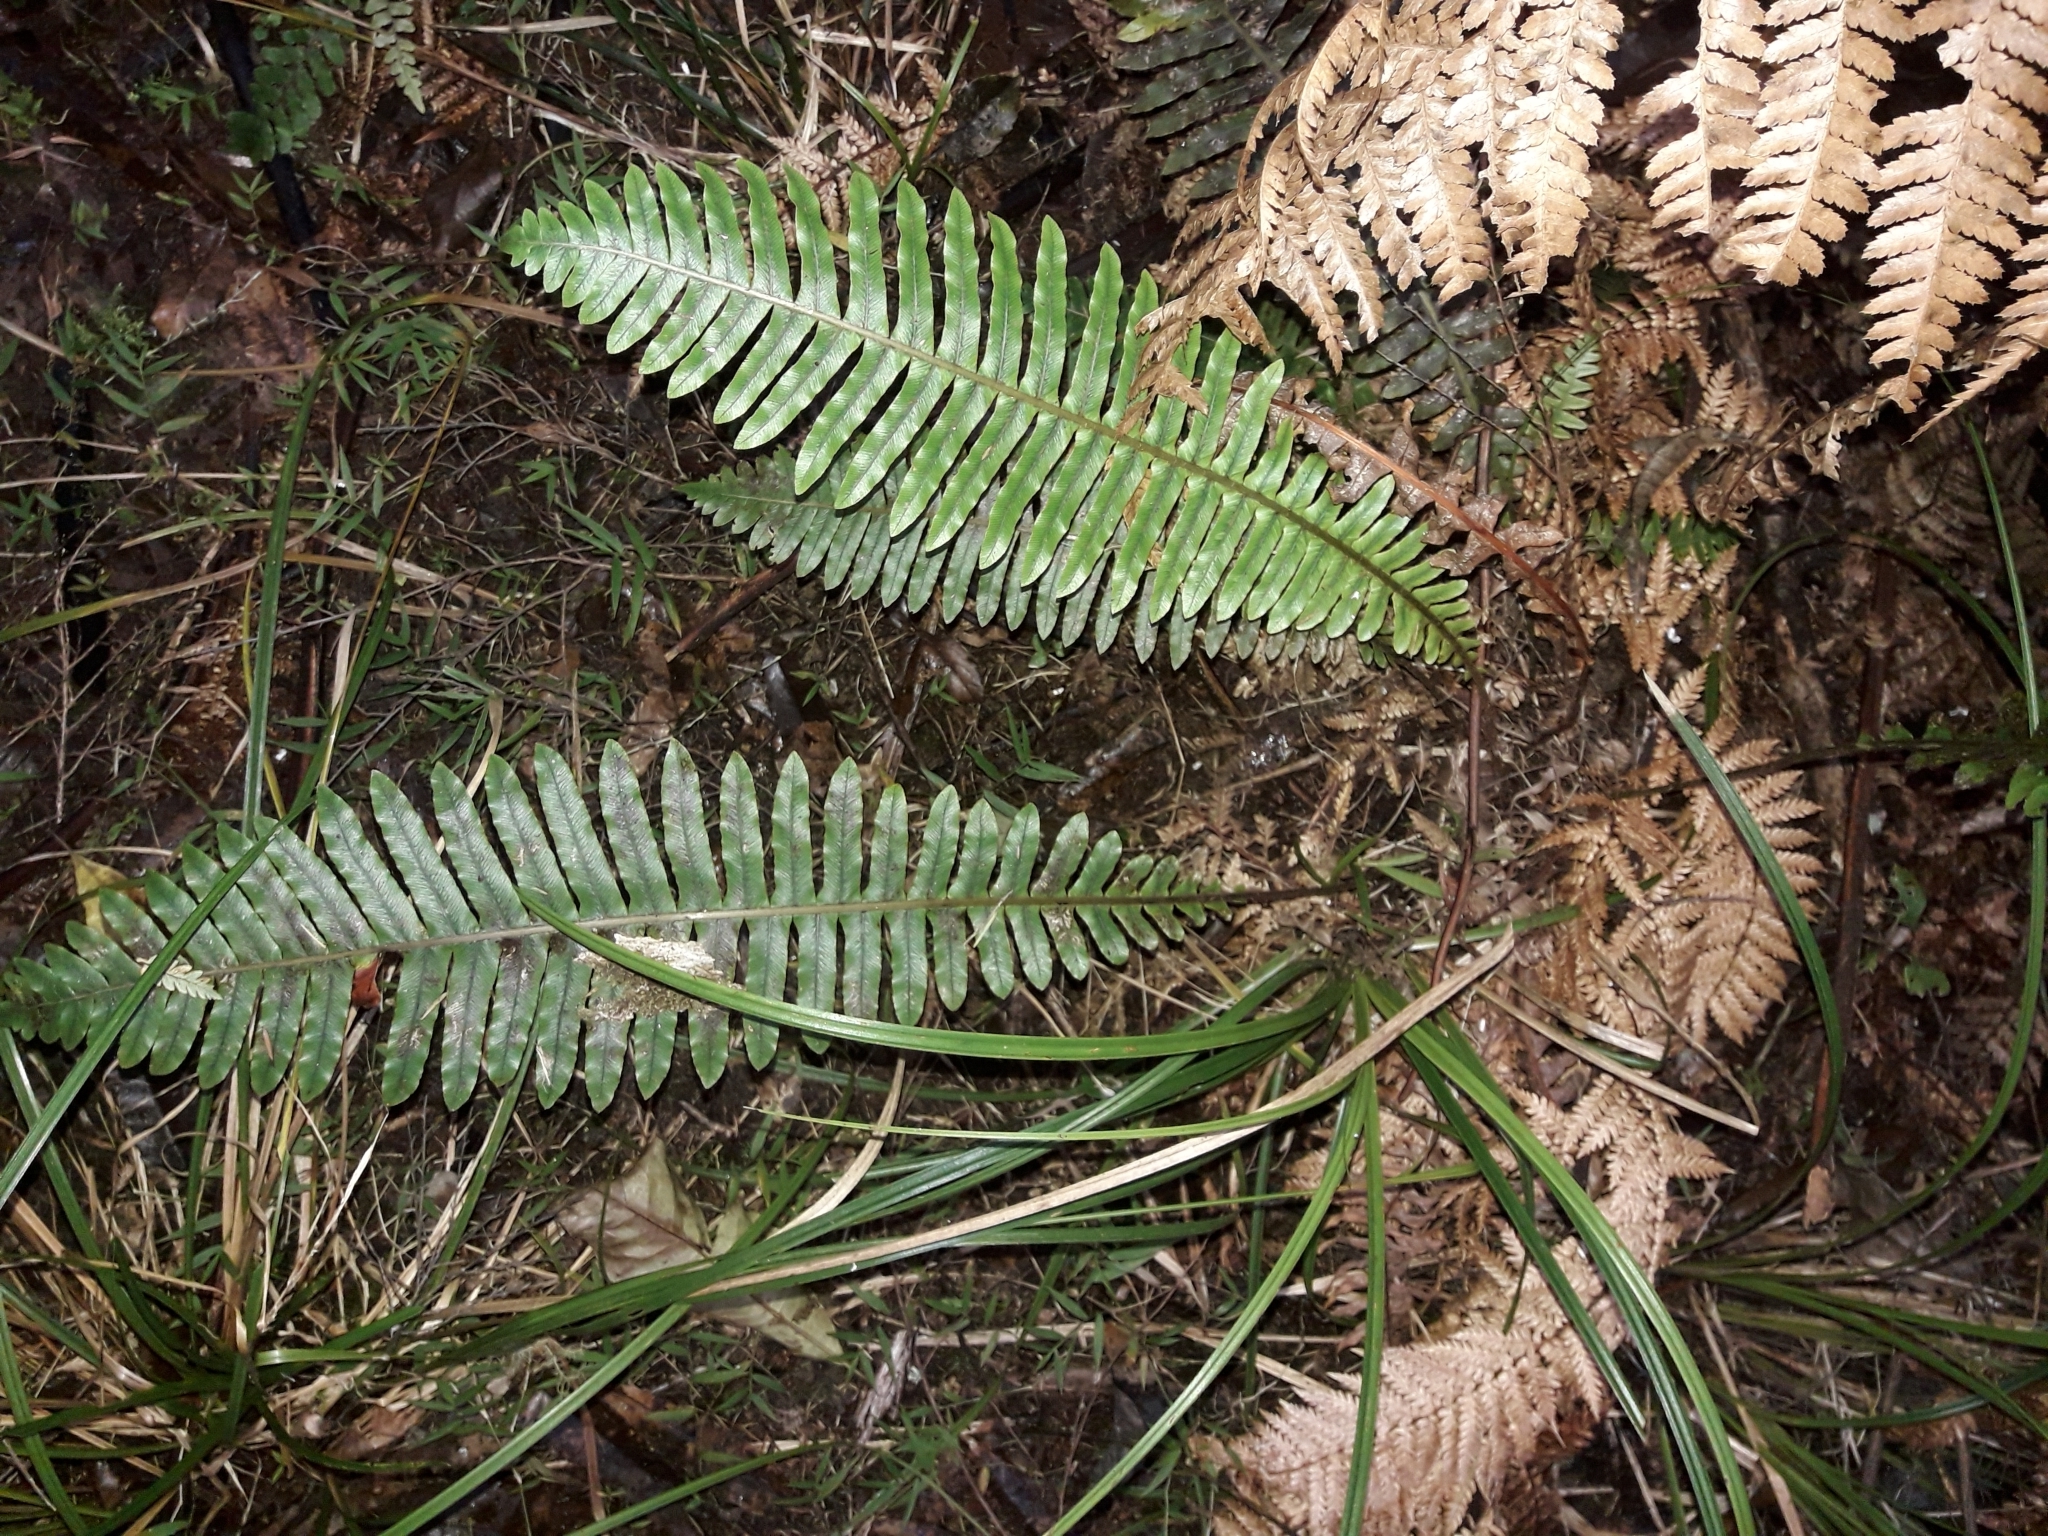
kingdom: Plantae
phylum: Tracheophyta
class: Polypodiopsida
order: Polypodiales
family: Blechnaceae
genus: Lomaria
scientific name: Lomaria discolor
